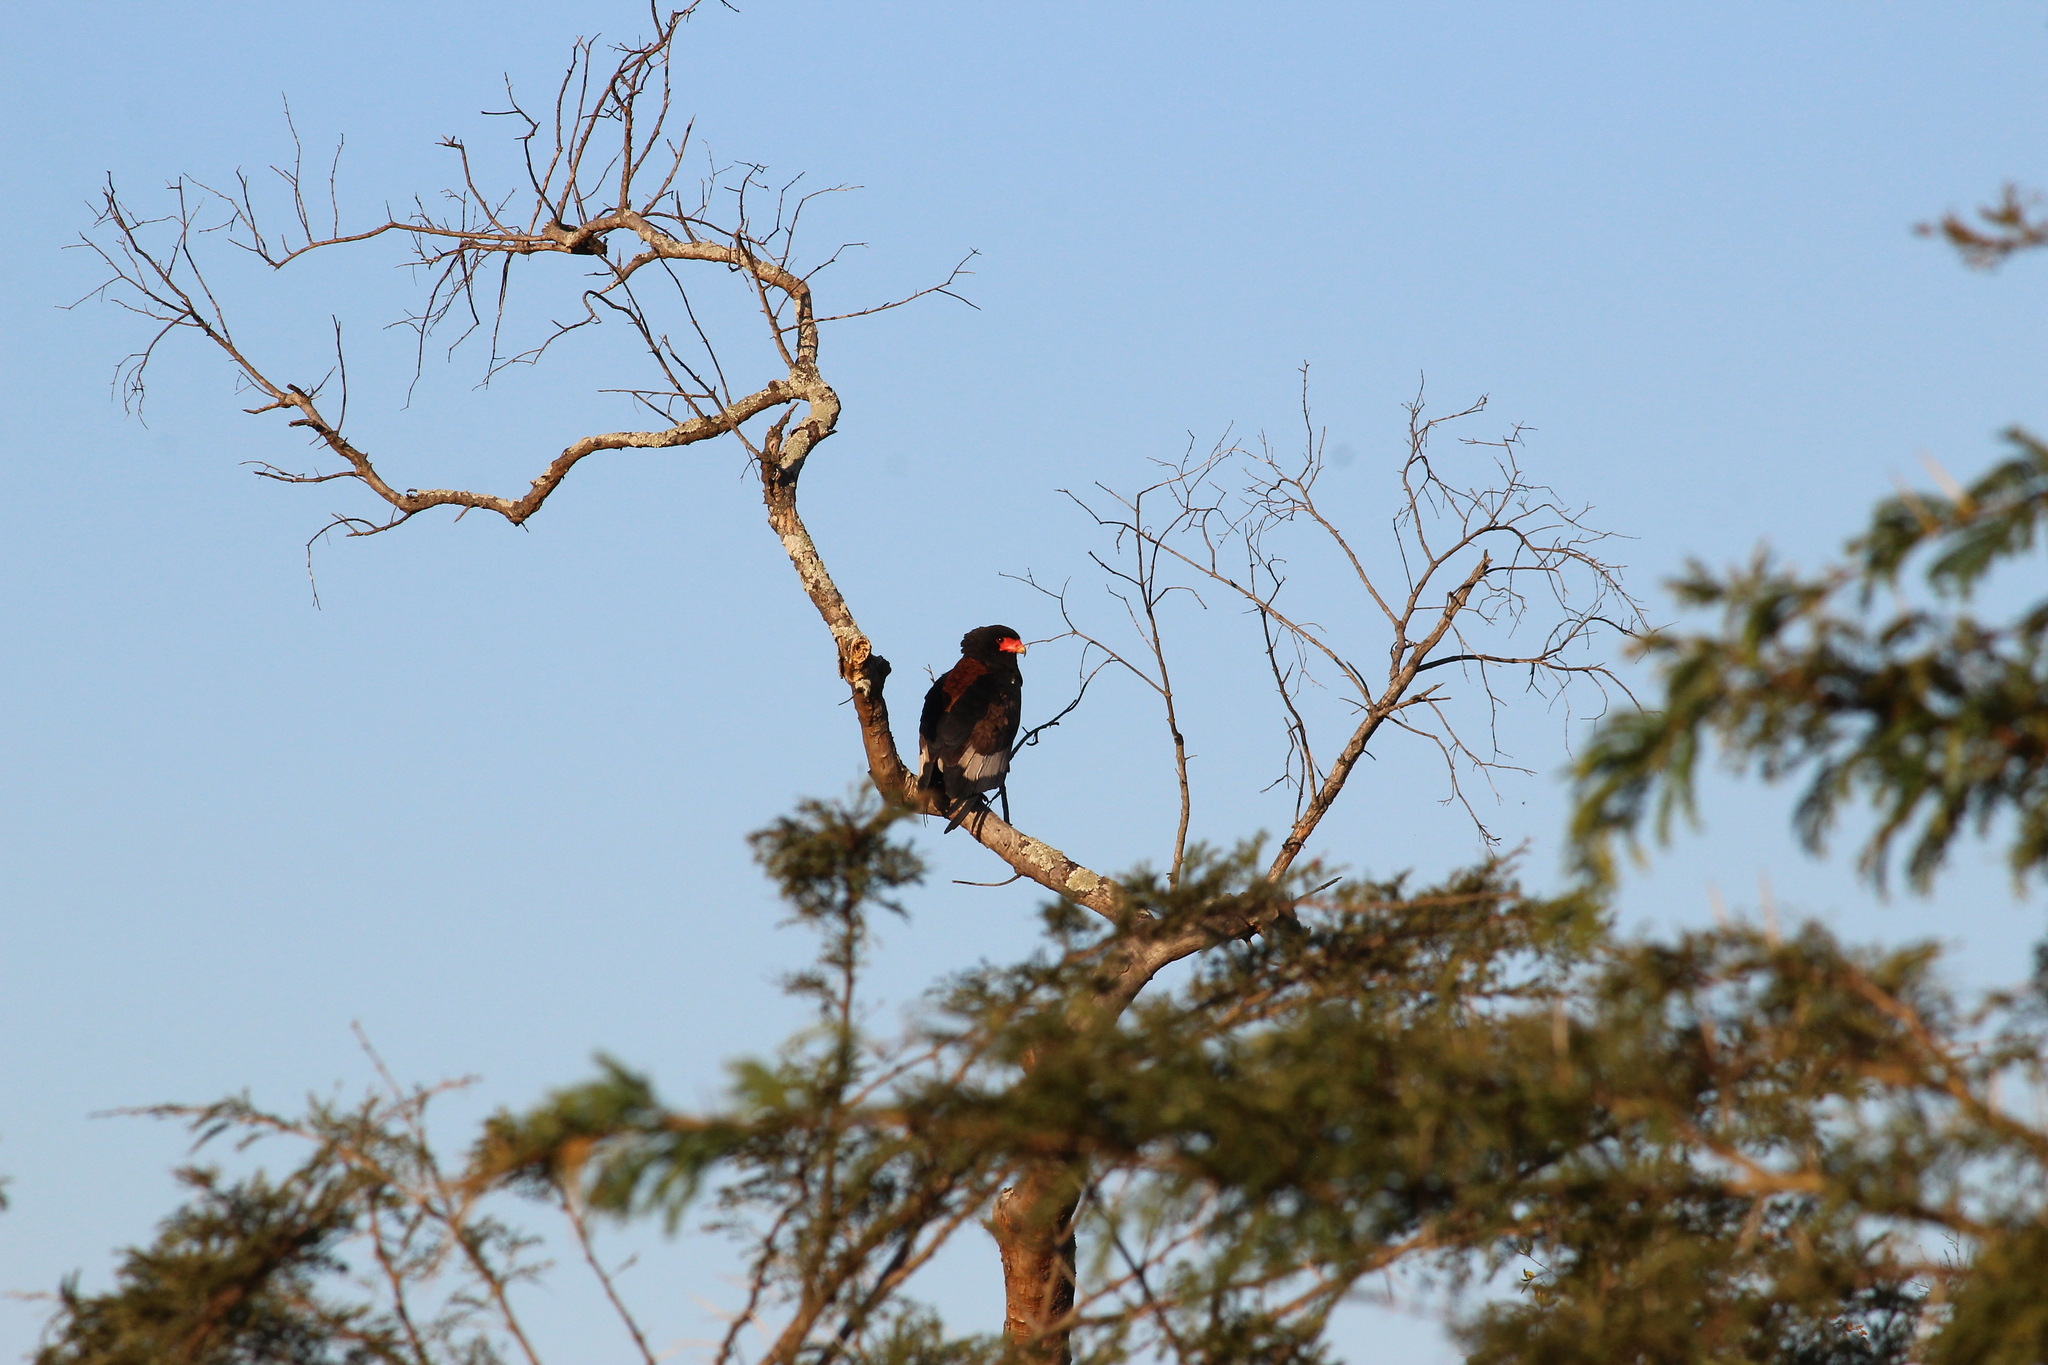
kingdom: Animalia
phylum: Chordata
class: Aves
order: Accipitriformes
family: Accipitridae
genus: Terathopius
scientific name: Terathopius ecaudatus
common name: Bateleur
